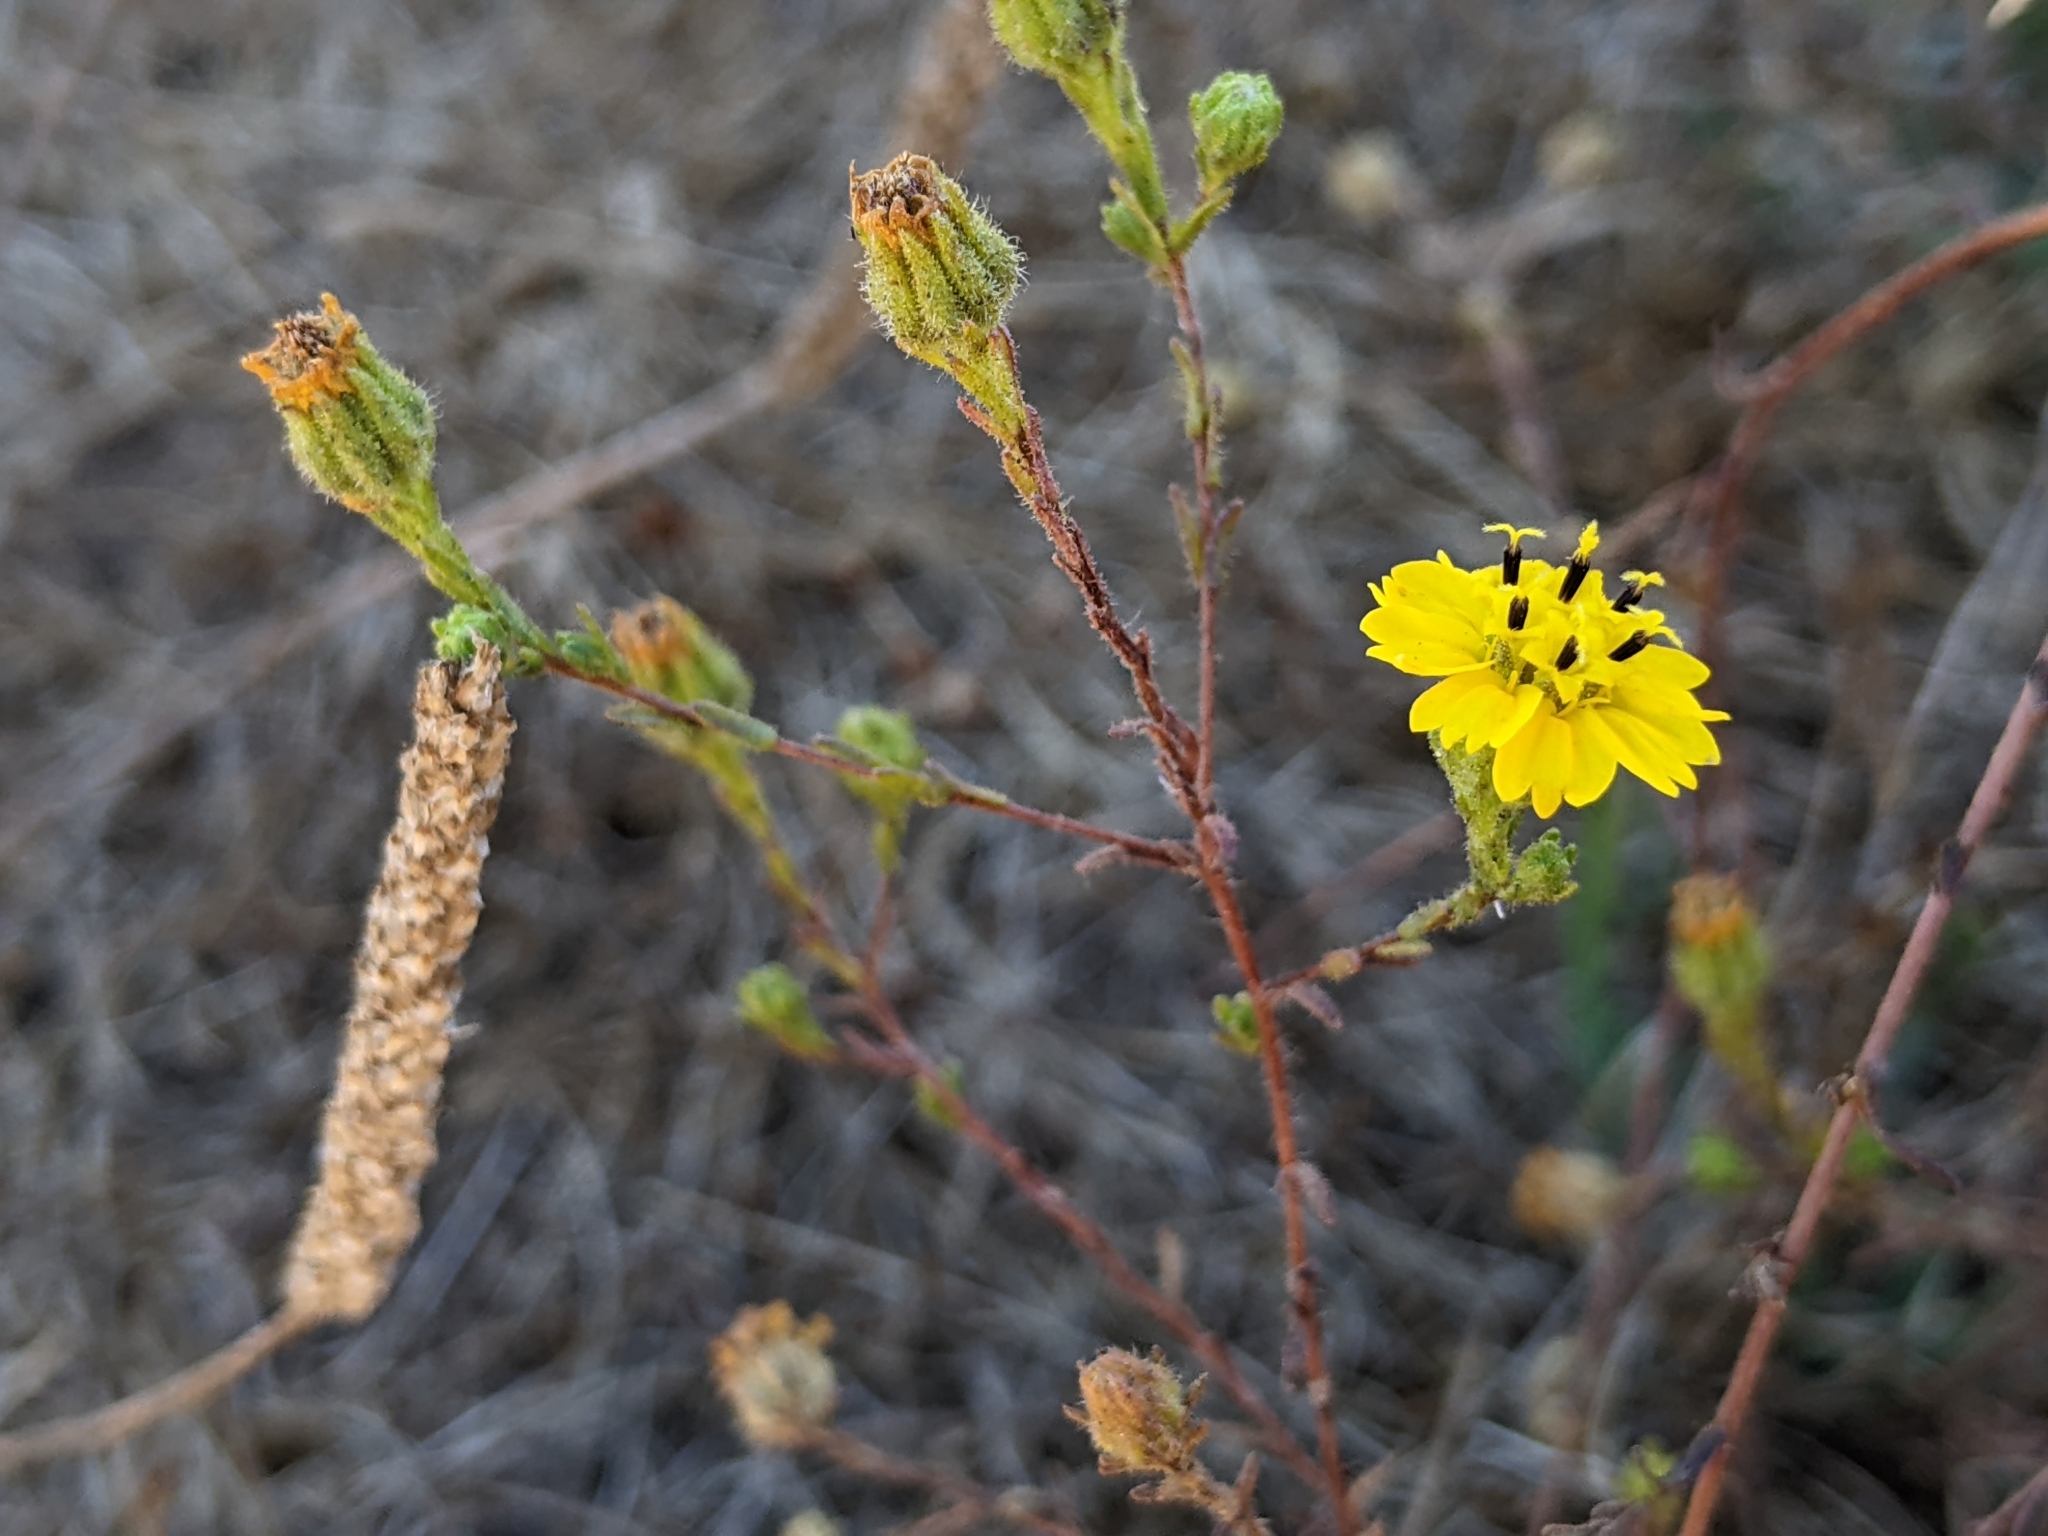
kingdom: Plantae
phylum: Tracheophyta
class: Magnoliopsida
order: Asterales
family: Asteraceae
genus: Deinandra
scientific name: Deinandra paniculata
